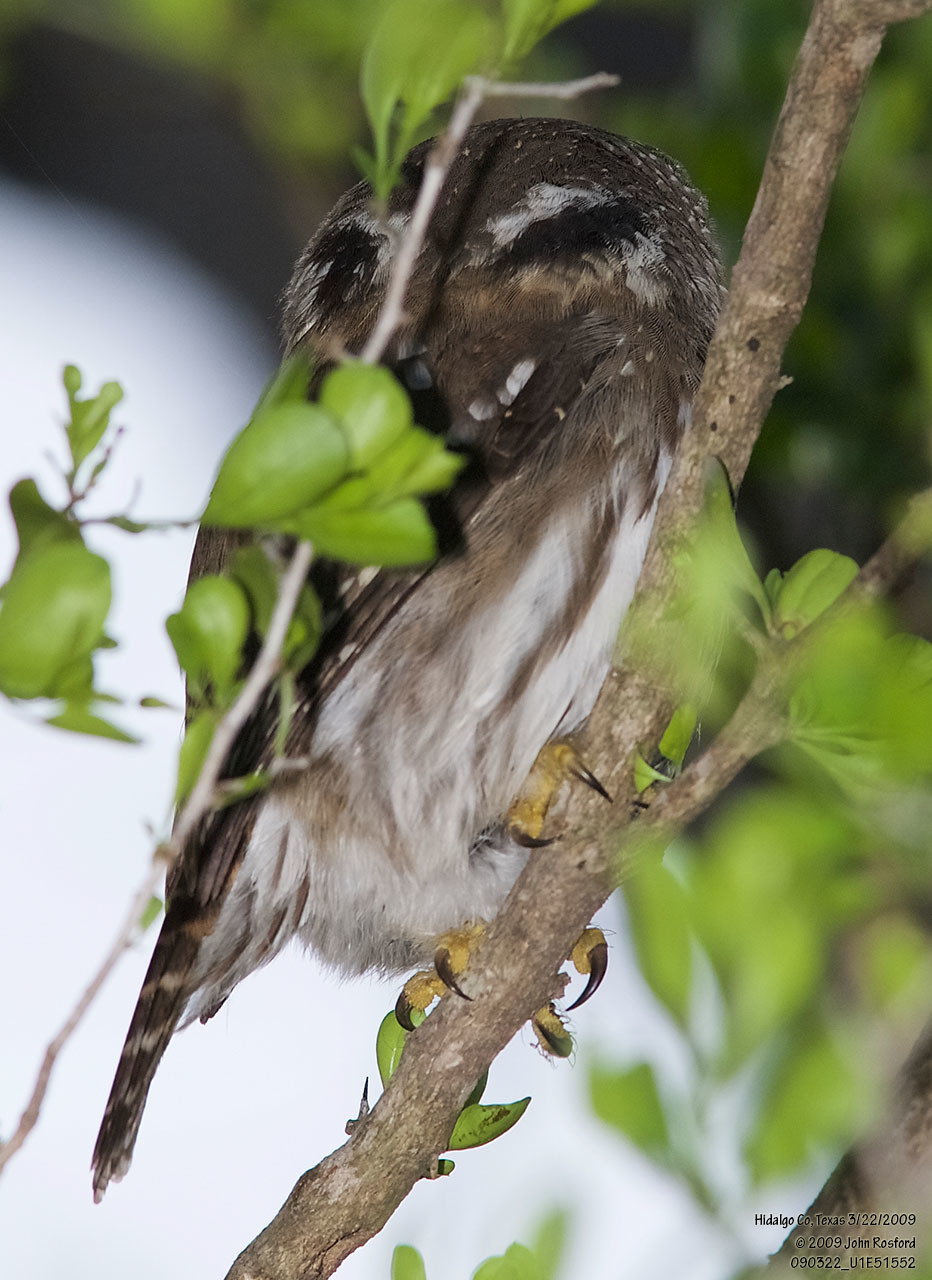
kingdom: Animalia
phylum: Chordata
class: Aves
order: Strigiformes
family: Strigidae
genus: Glaucidium
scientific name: Glaucidium brasilianum
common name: Ferruginous pygmy-owl
